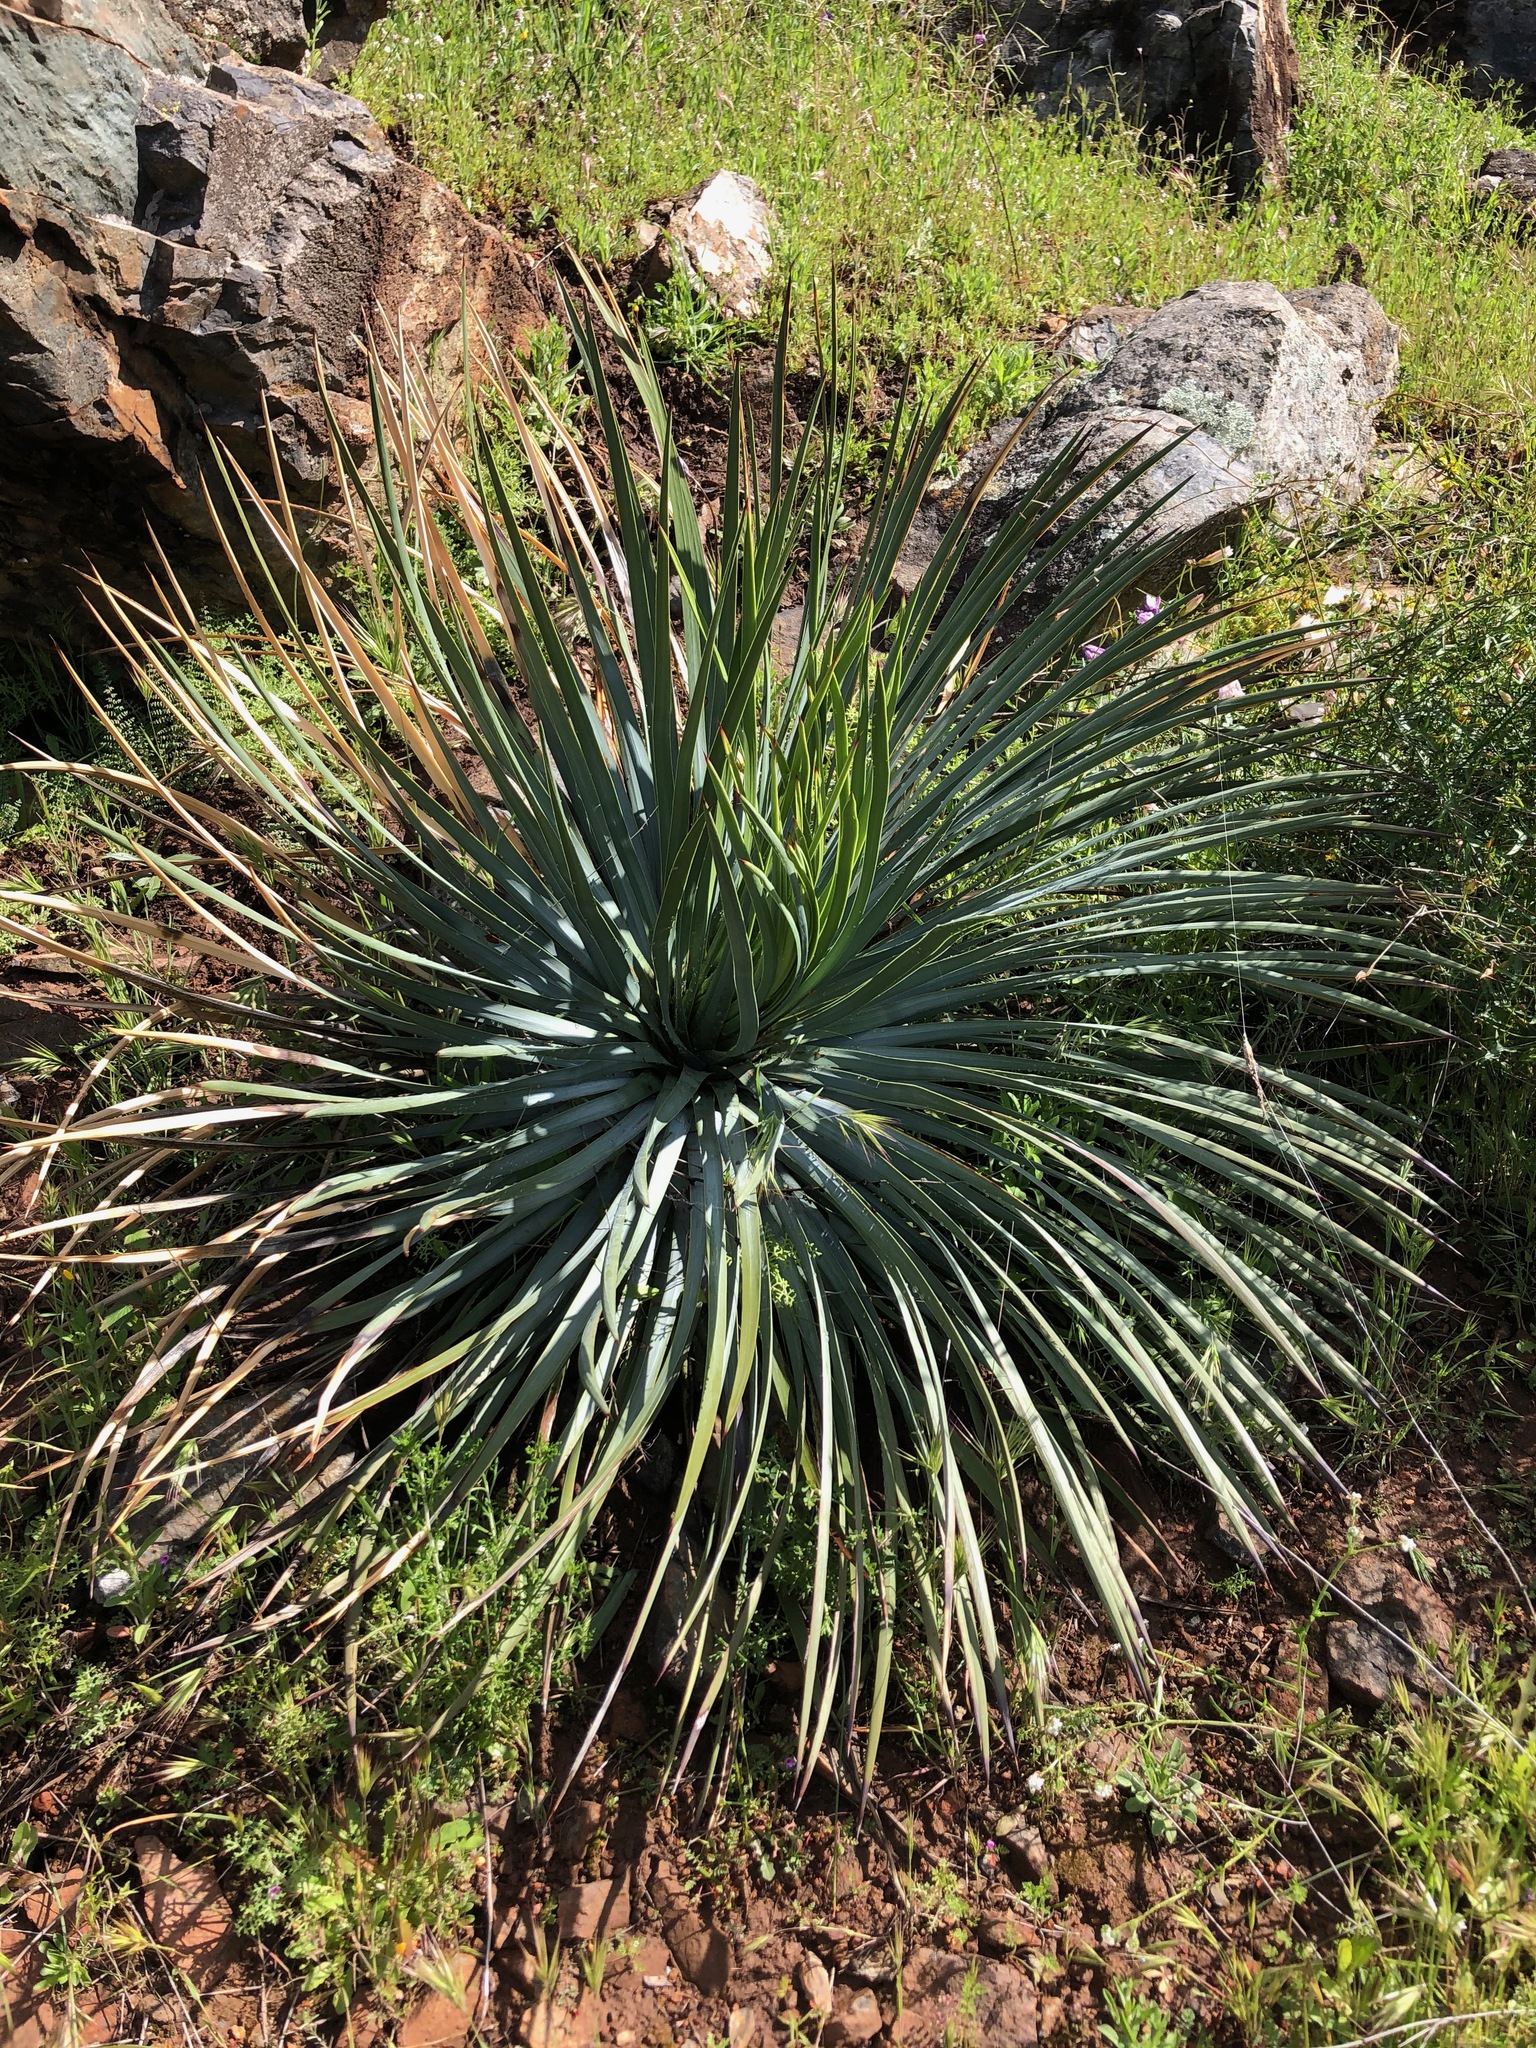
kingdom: Plantae
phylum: Tracheophyta
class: Liliopsida
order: Asparagales
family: Asparagaceae
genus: Hesperoyucca
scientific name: Hesperoyucca whipplei
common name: Our lord's-candle
